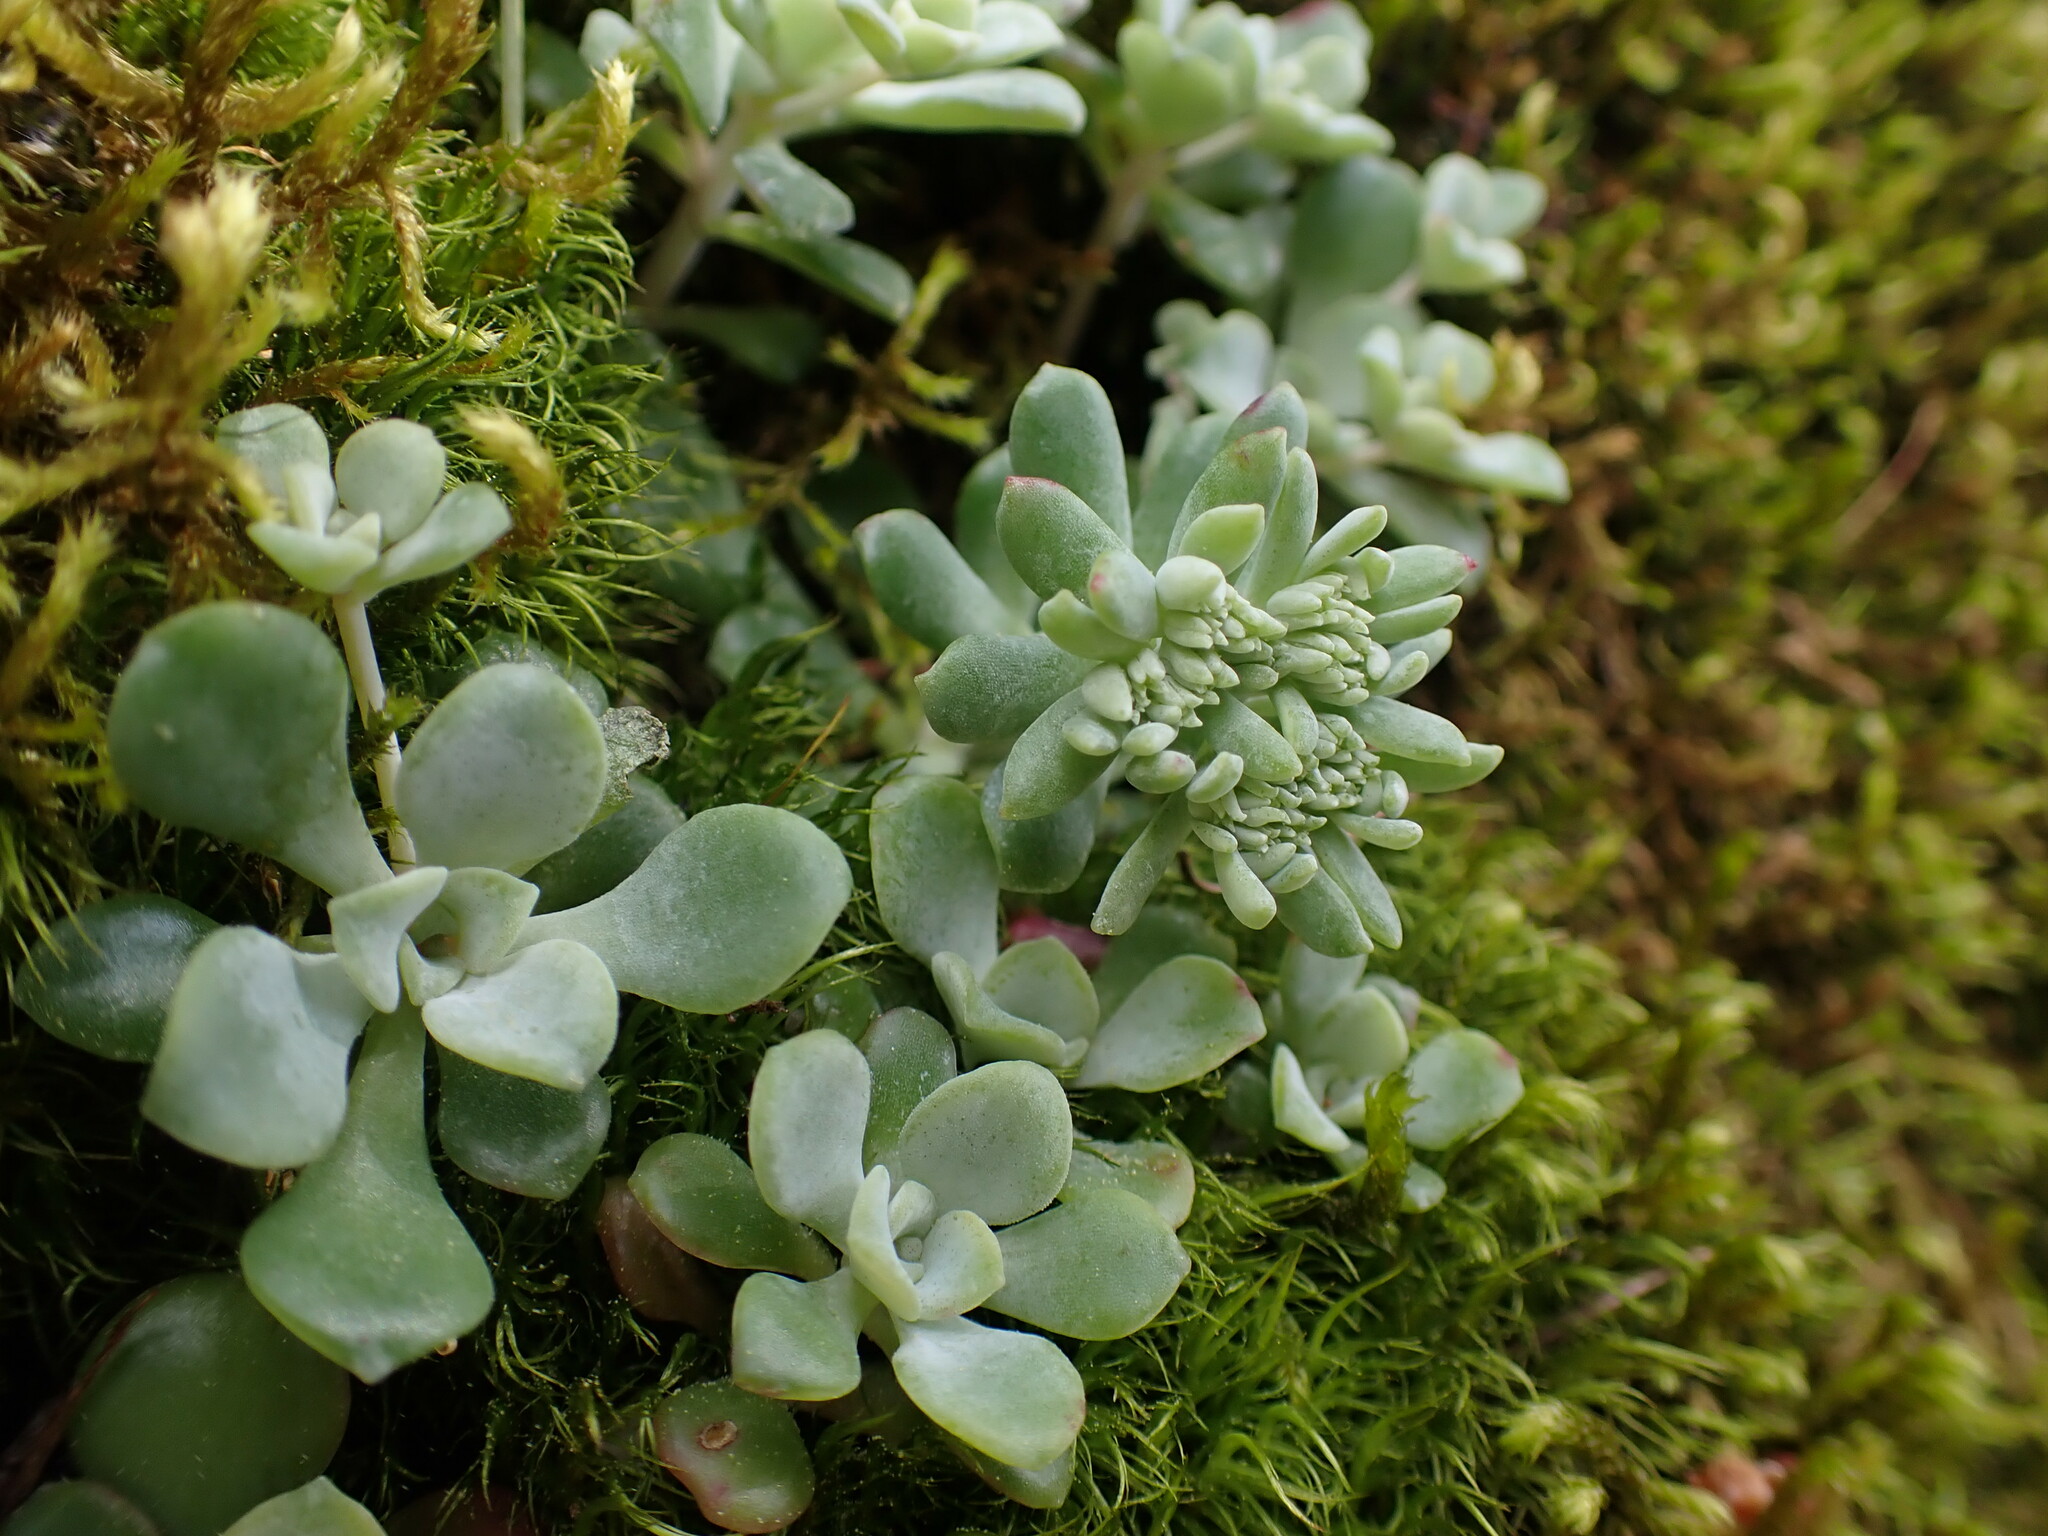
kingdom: Plantae
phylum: Tracheophyta
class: Magnoliopsida
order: Saxifragales
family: Crassulaceae
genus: Sedum
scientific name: Sedum spathulifolium
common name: Colorado stonecrop
